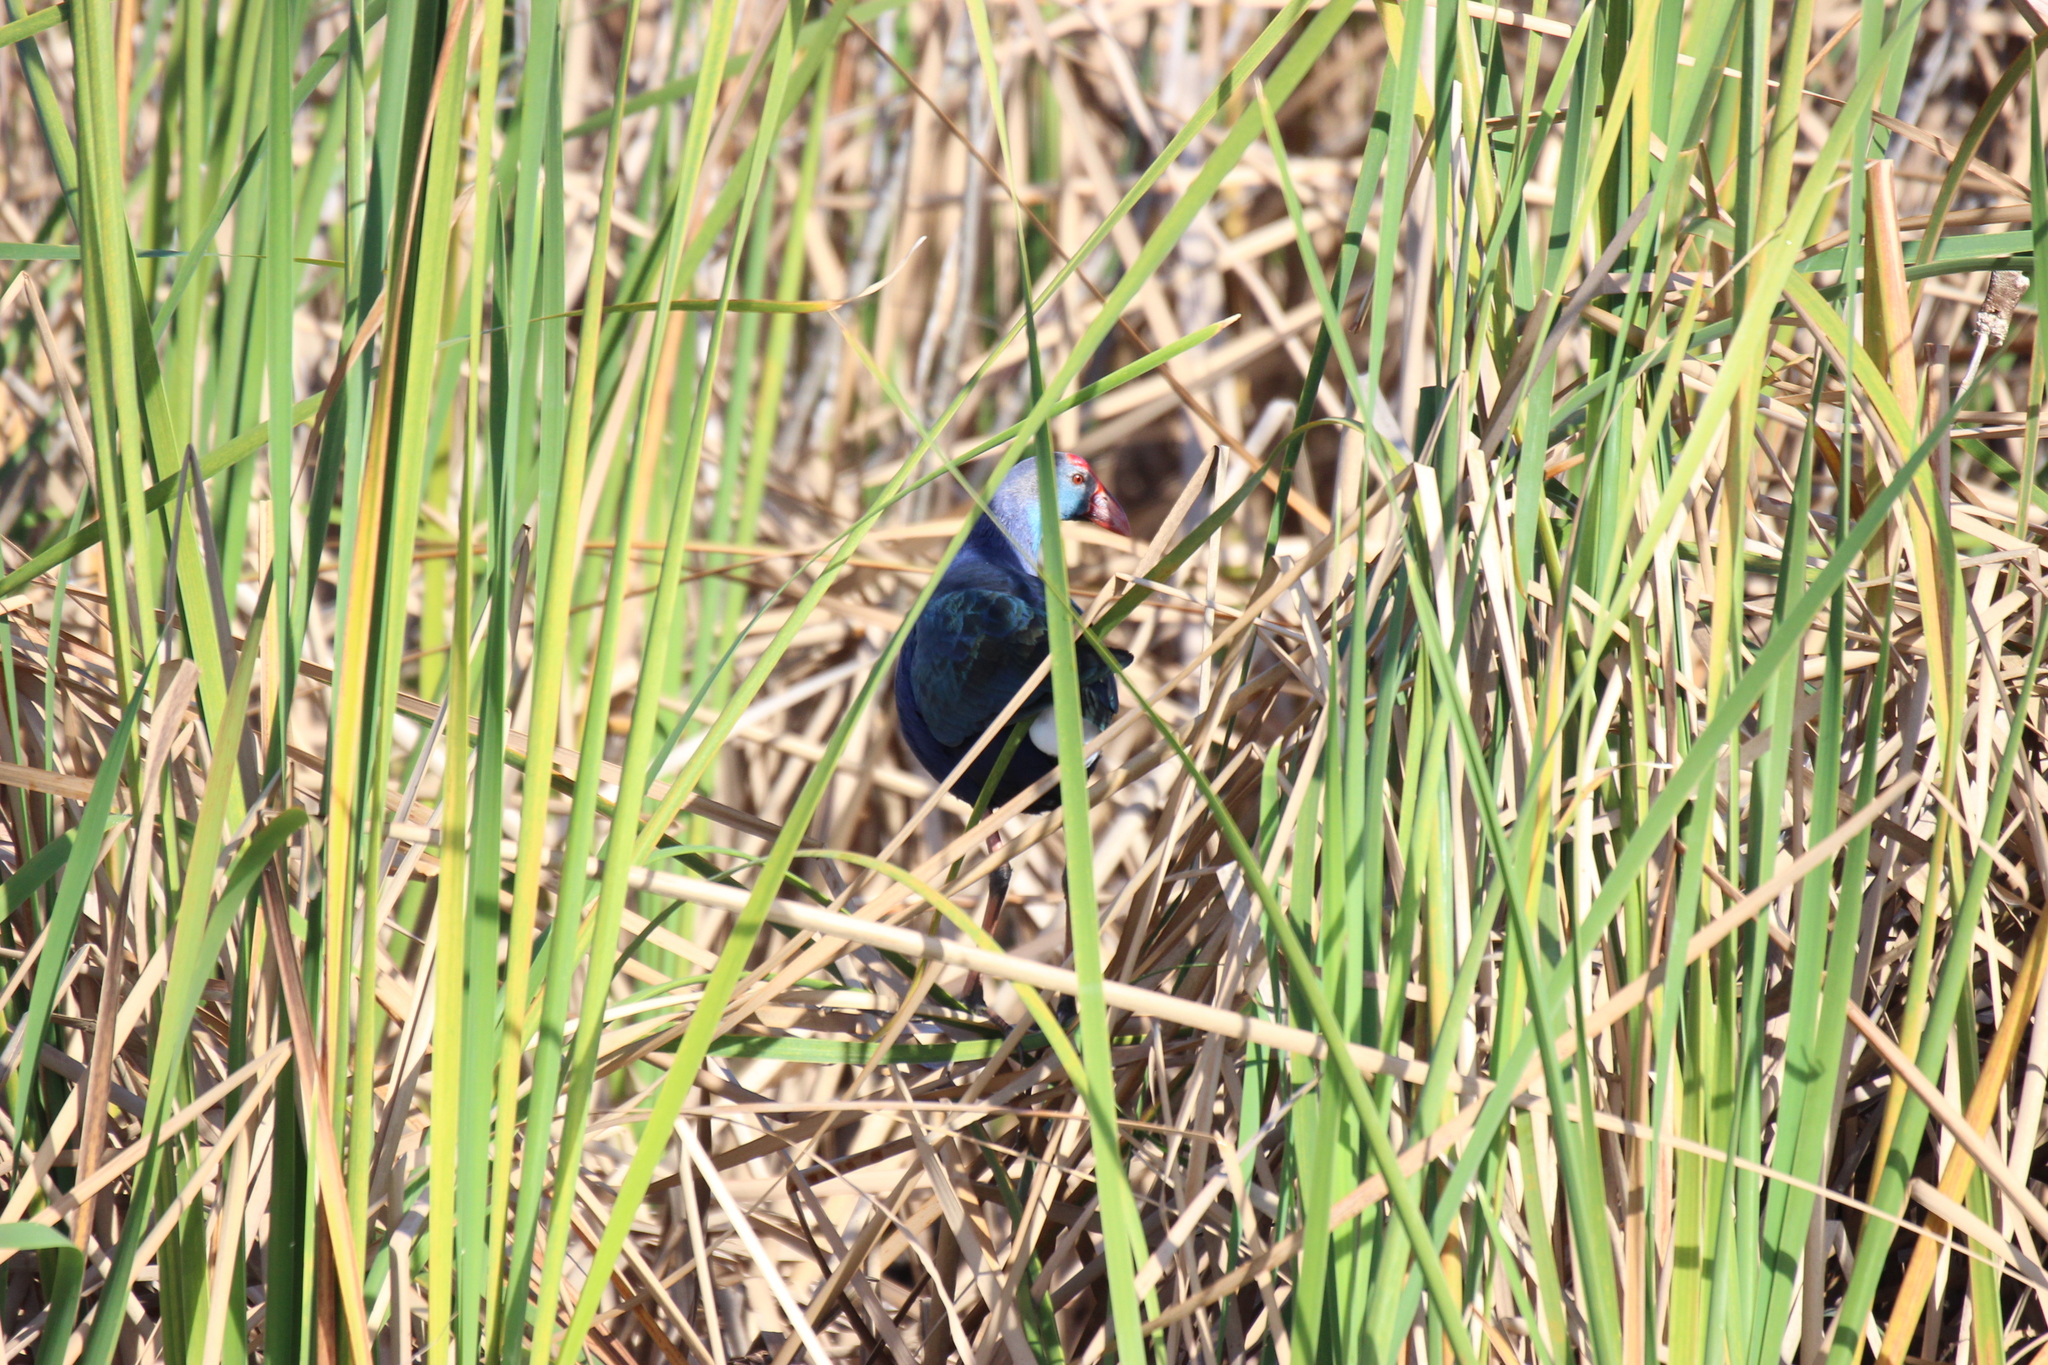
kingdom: Animalia
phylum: Chordata
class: Aves
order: Gruiformes
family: Rallidae
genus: Porphyrio
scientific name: Porphyrio porphyrio
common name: Purple swamphen
